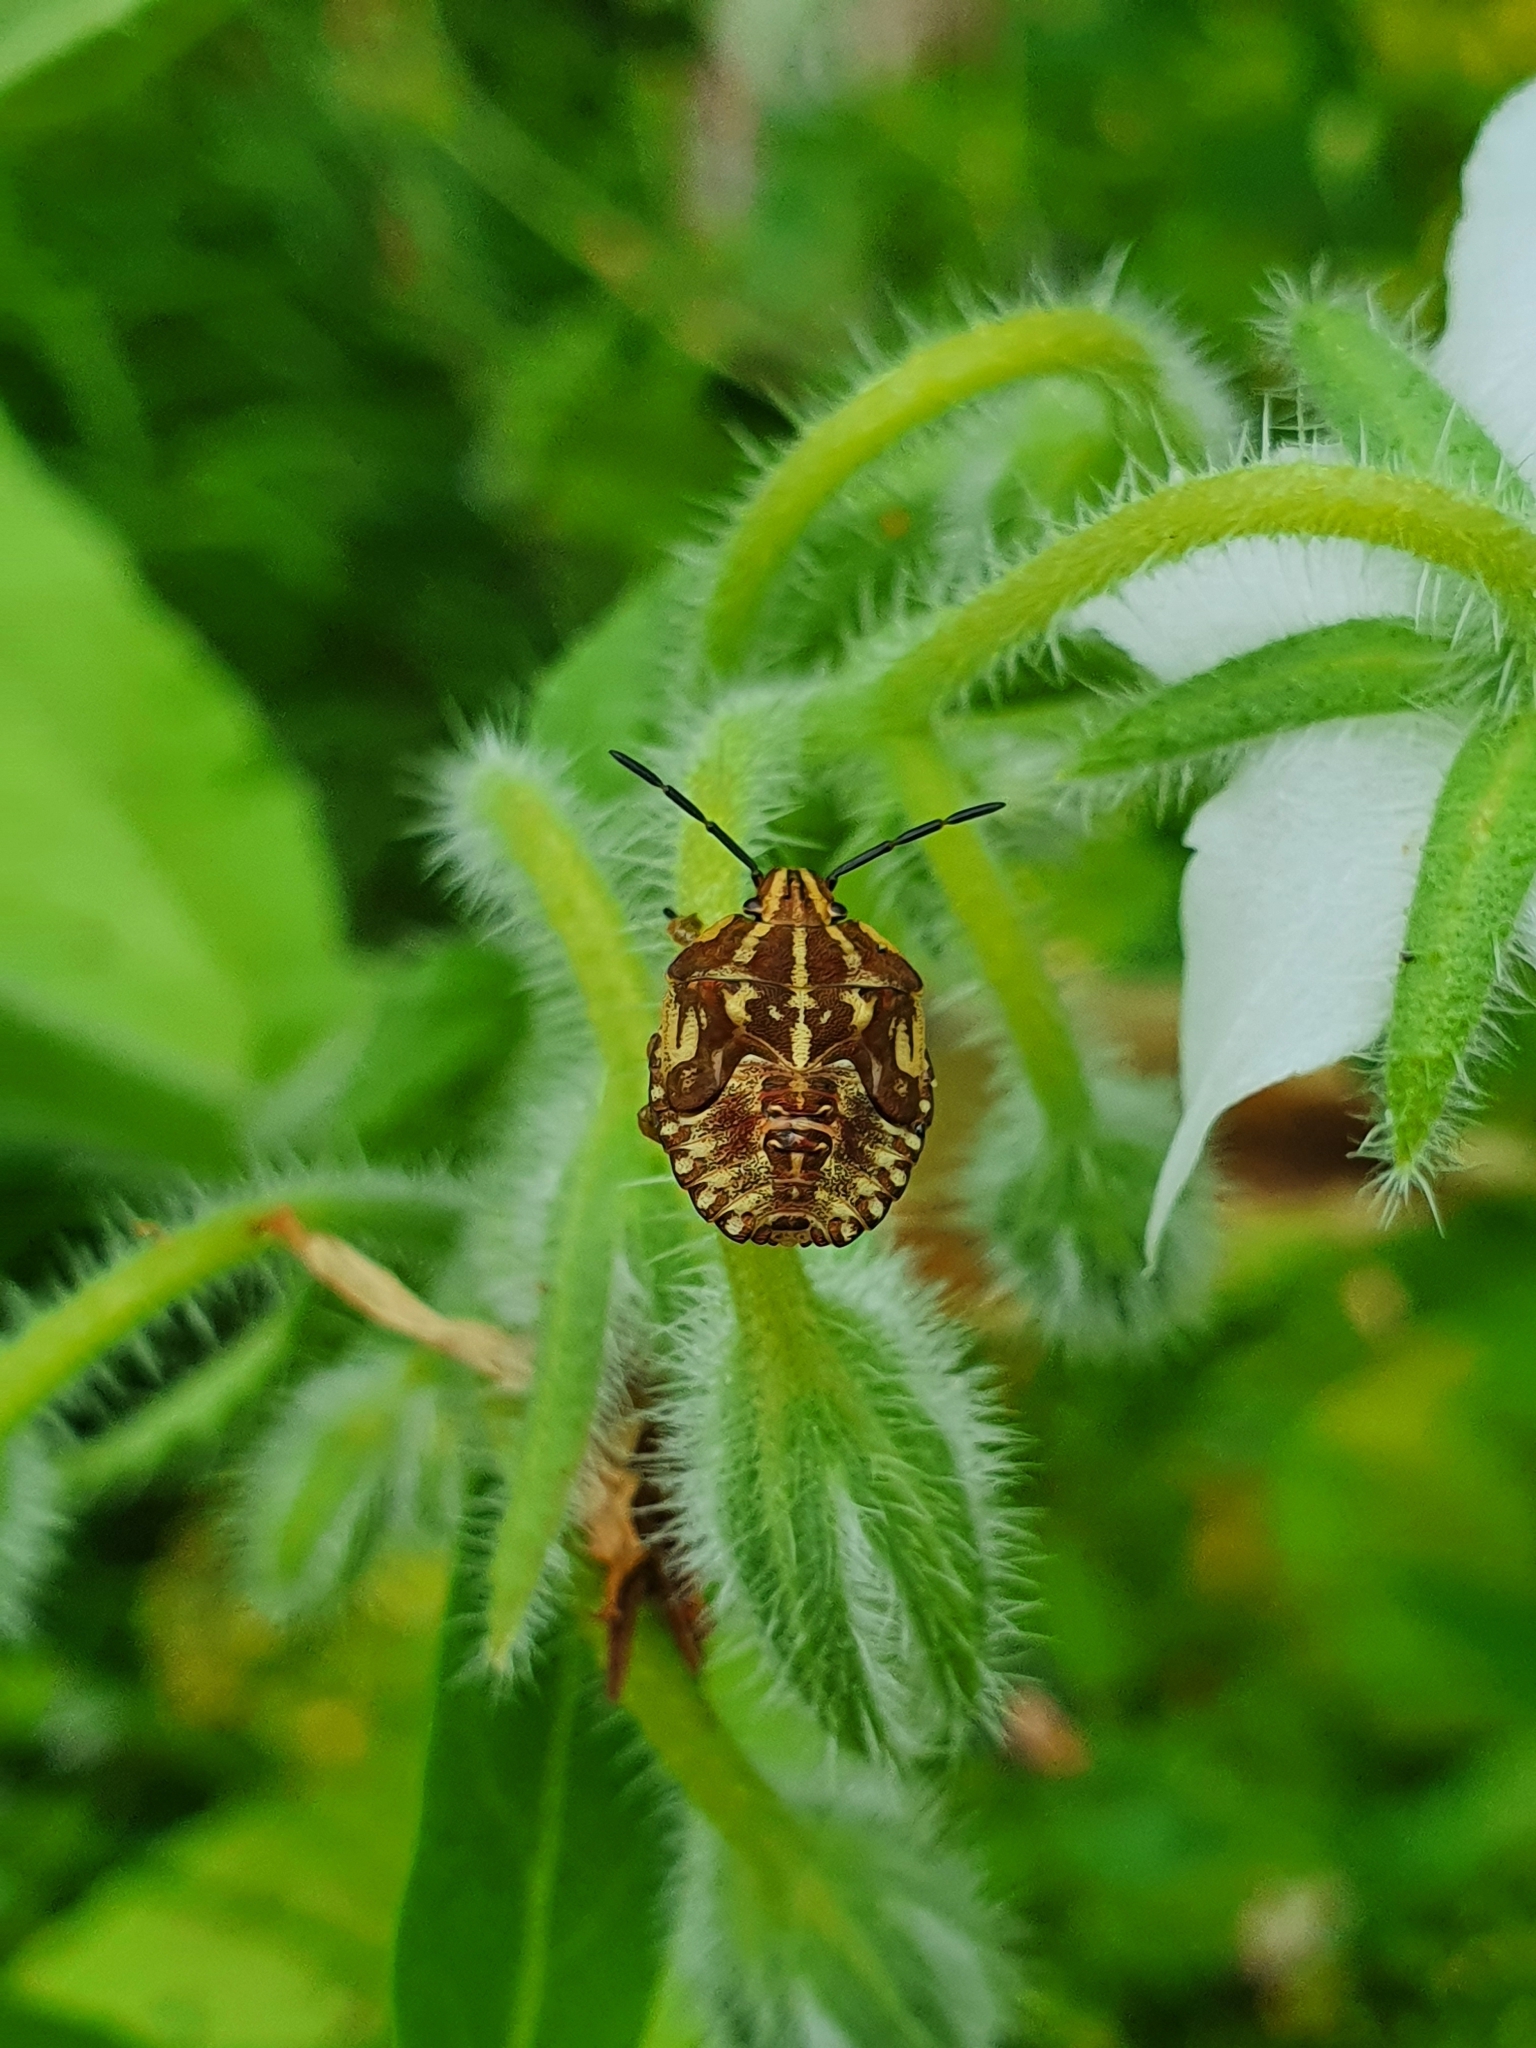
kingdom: Animalia
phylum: Arthropoda
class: Insecta
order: Hemiptera
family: Pentatomidae
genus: Carpocoris
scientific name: Carpocoris purpureipennis
